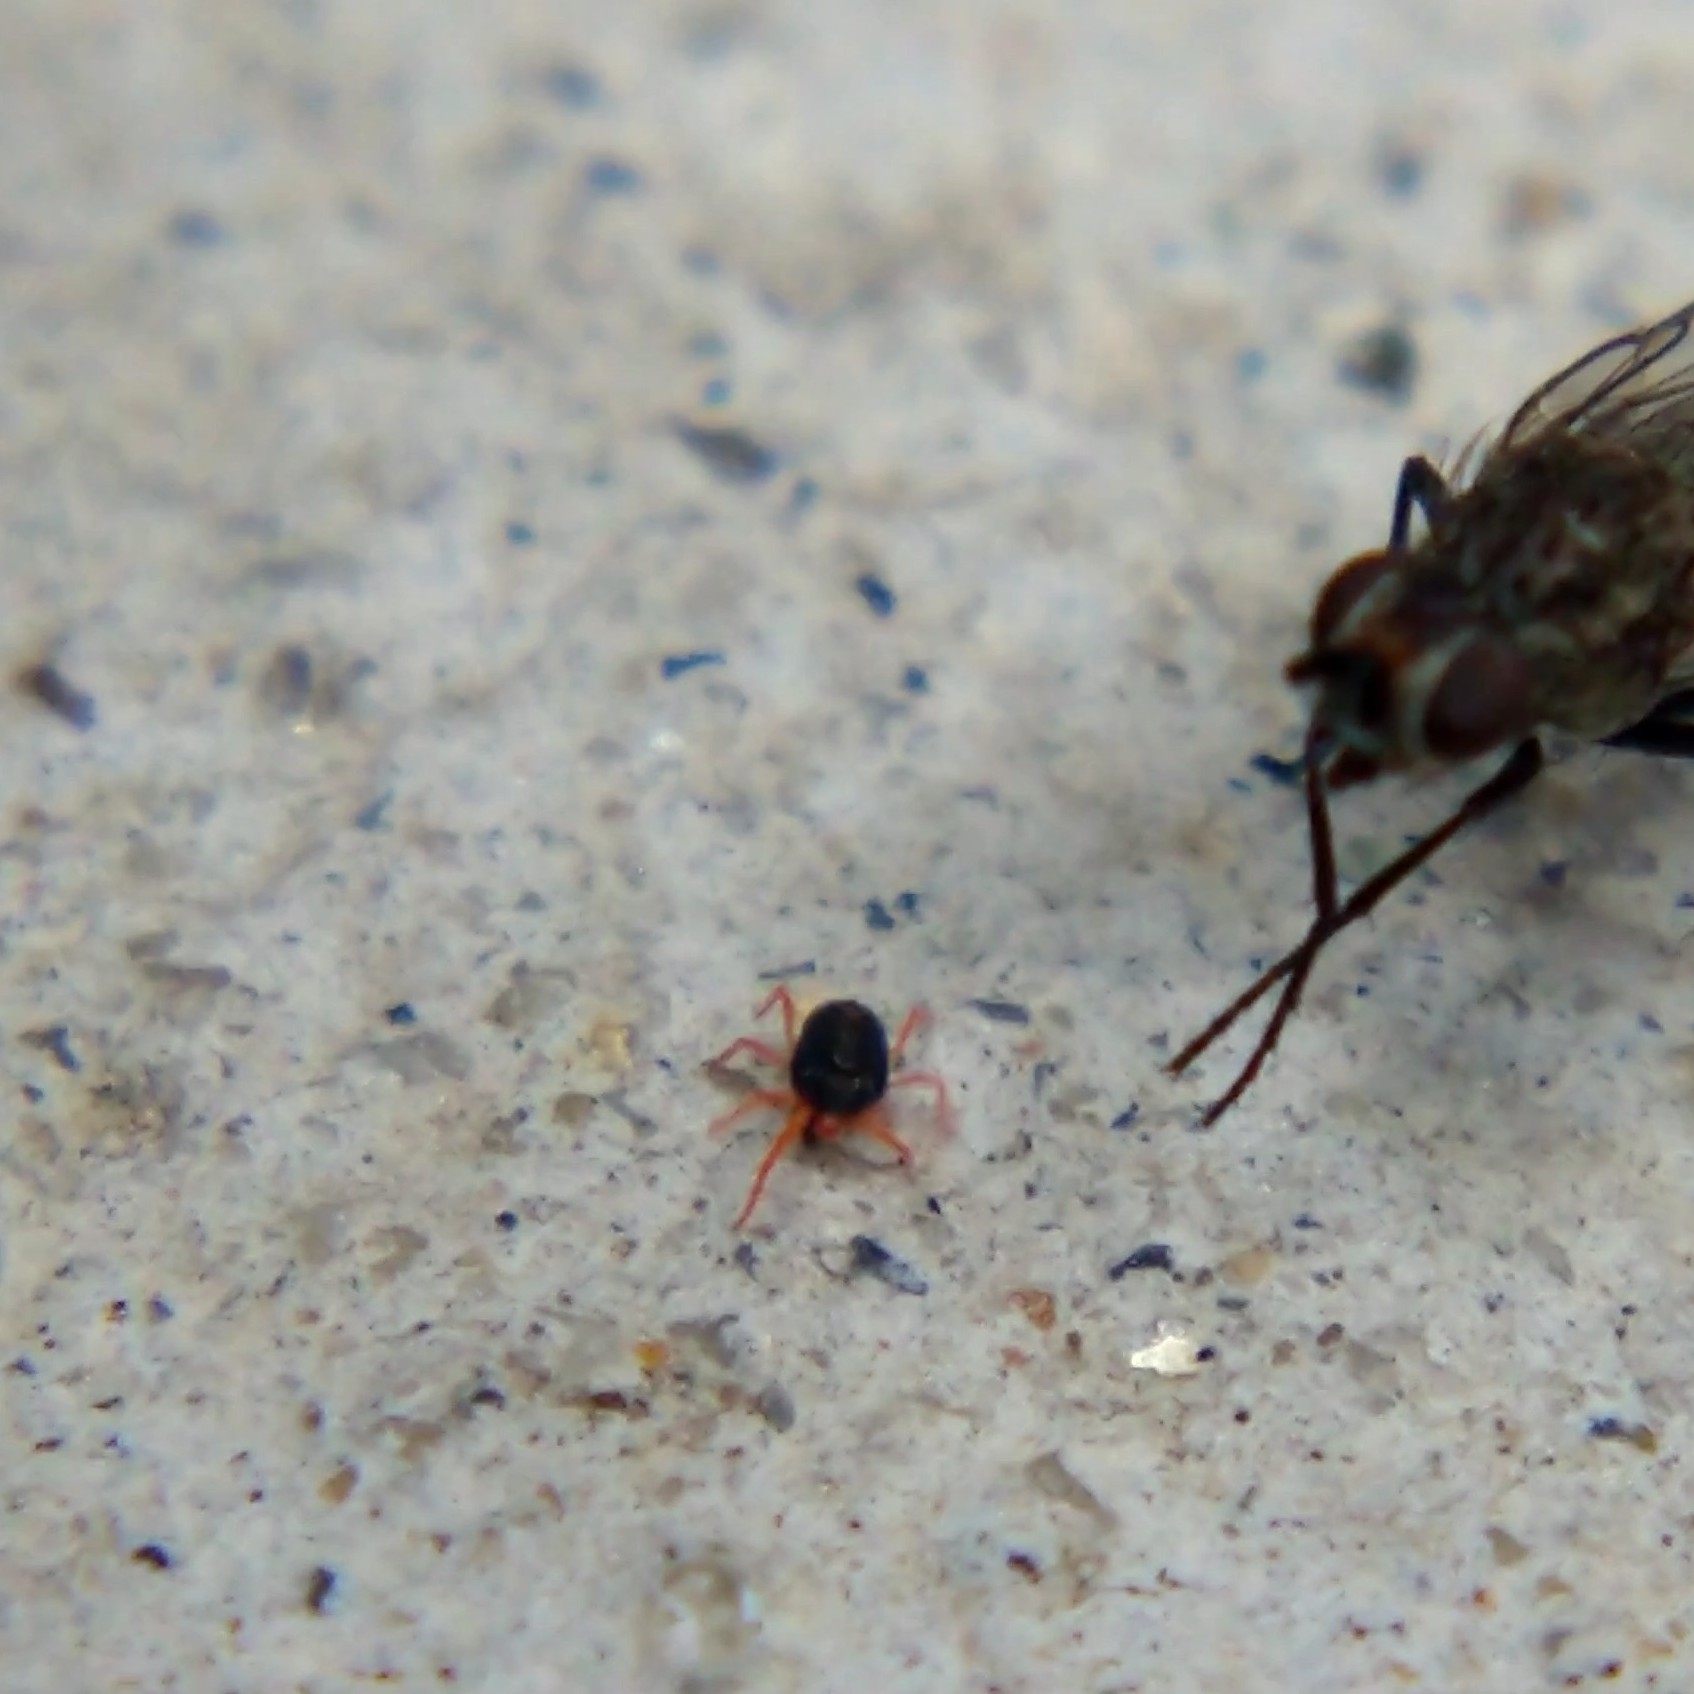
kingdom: Animalia
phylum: Arthropoda
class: Arachnida
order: Trombidiformes
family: Penthaleidae
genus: Penthaleus
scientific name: Penthaleus
